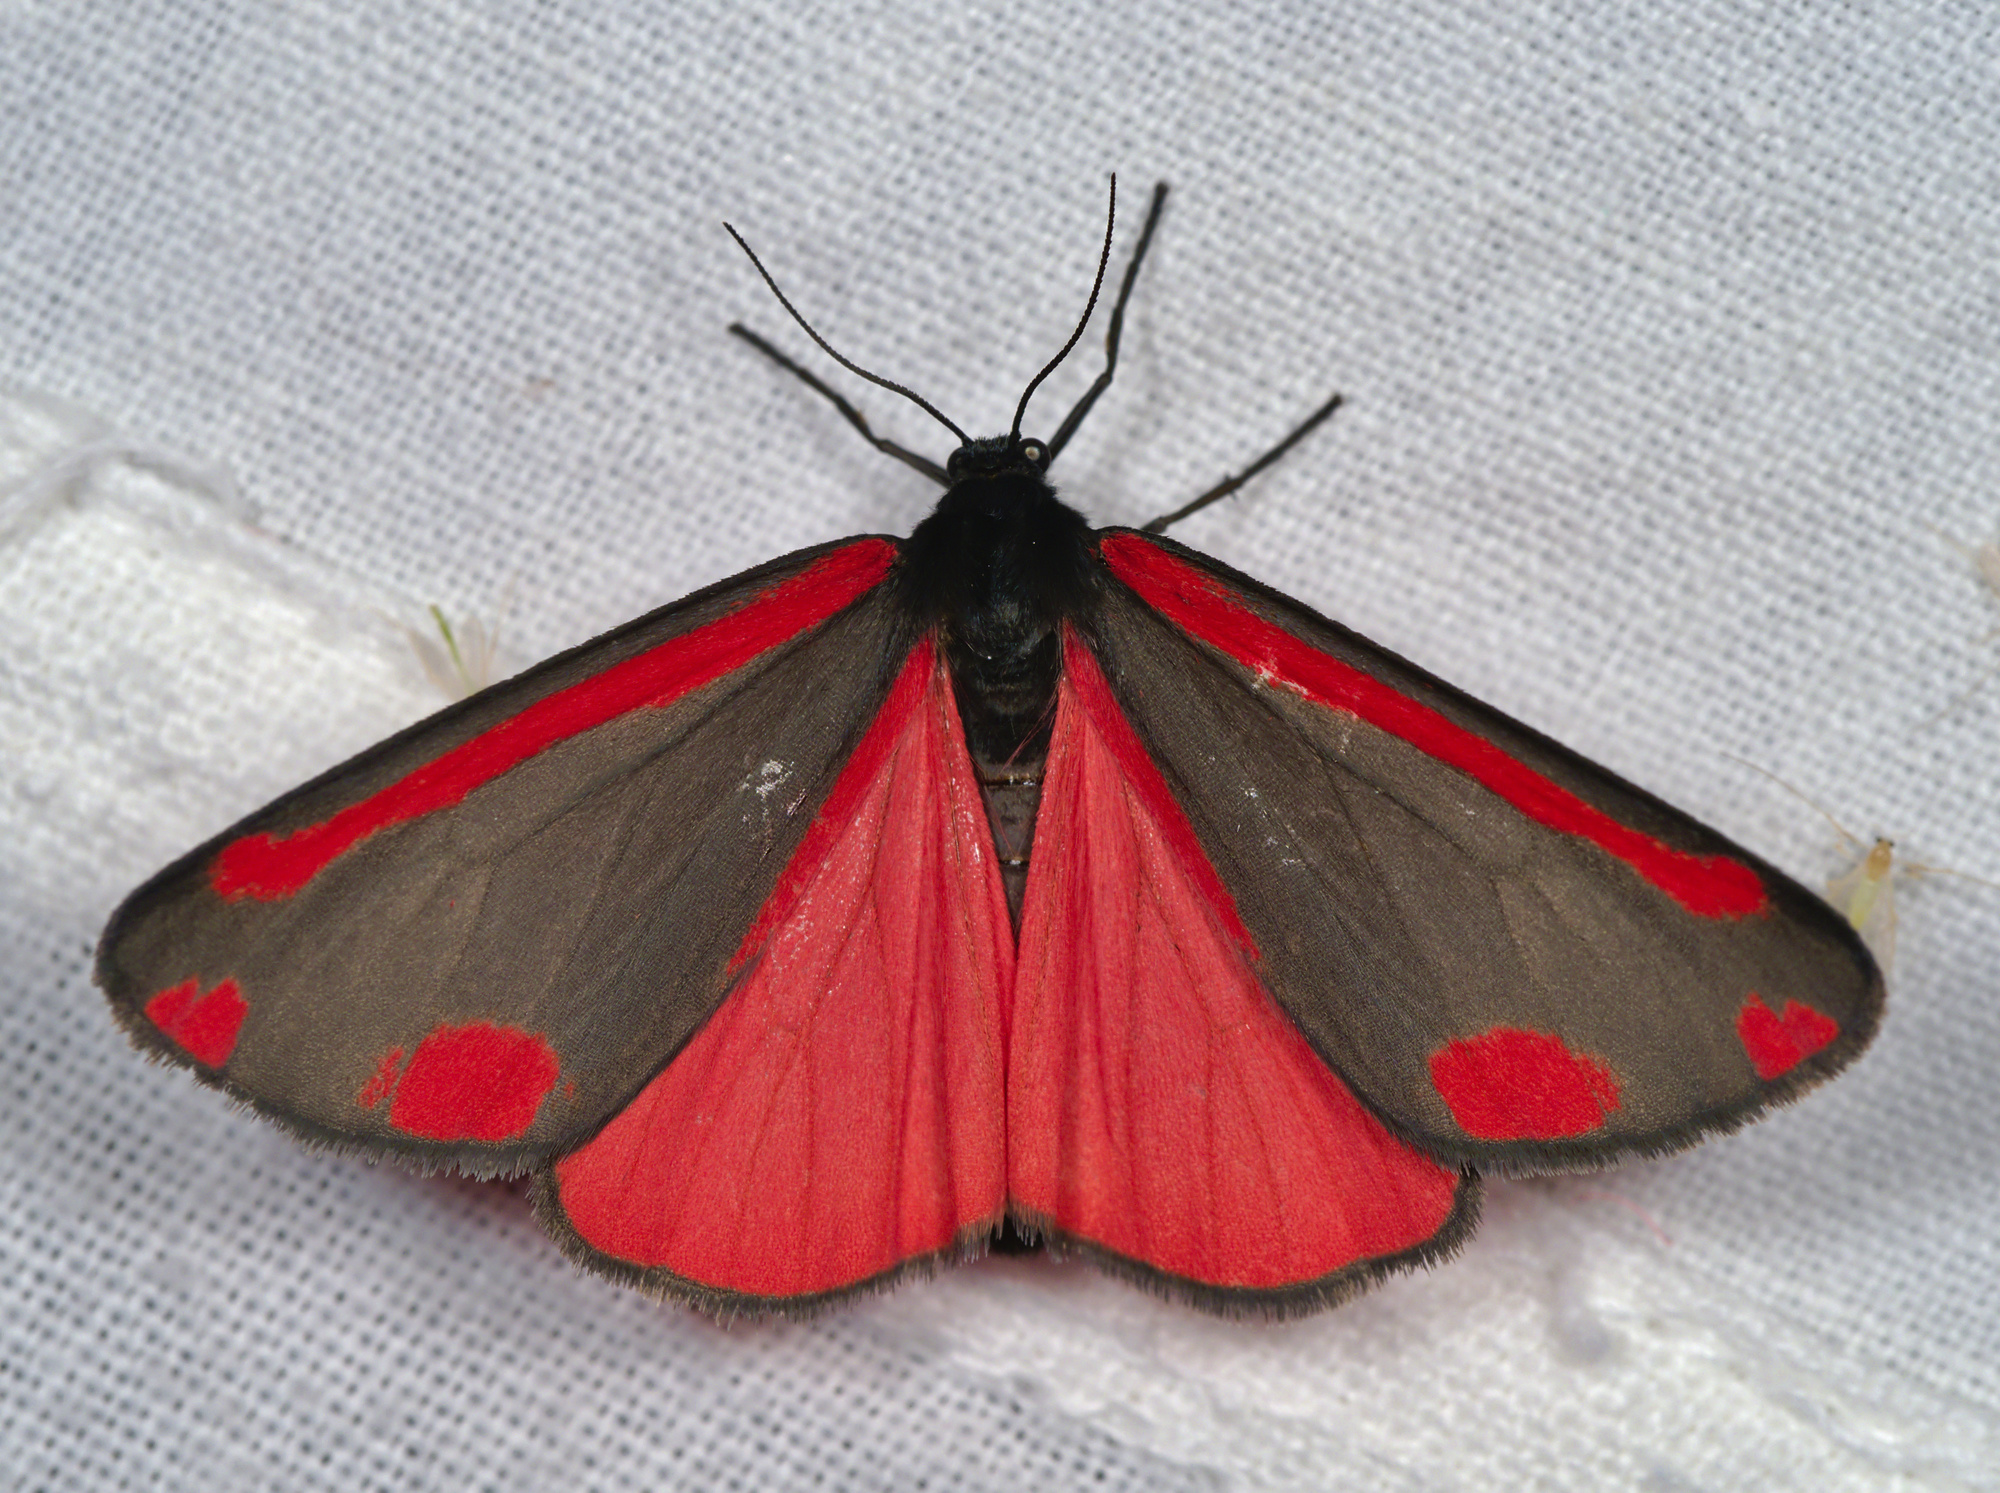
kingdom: Animalia
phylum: Arthropoda
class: Insecta
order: Lepidoptera
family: Erebidae
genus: Tyria
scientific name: Tyria jacobaeae
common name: Cinnabar
